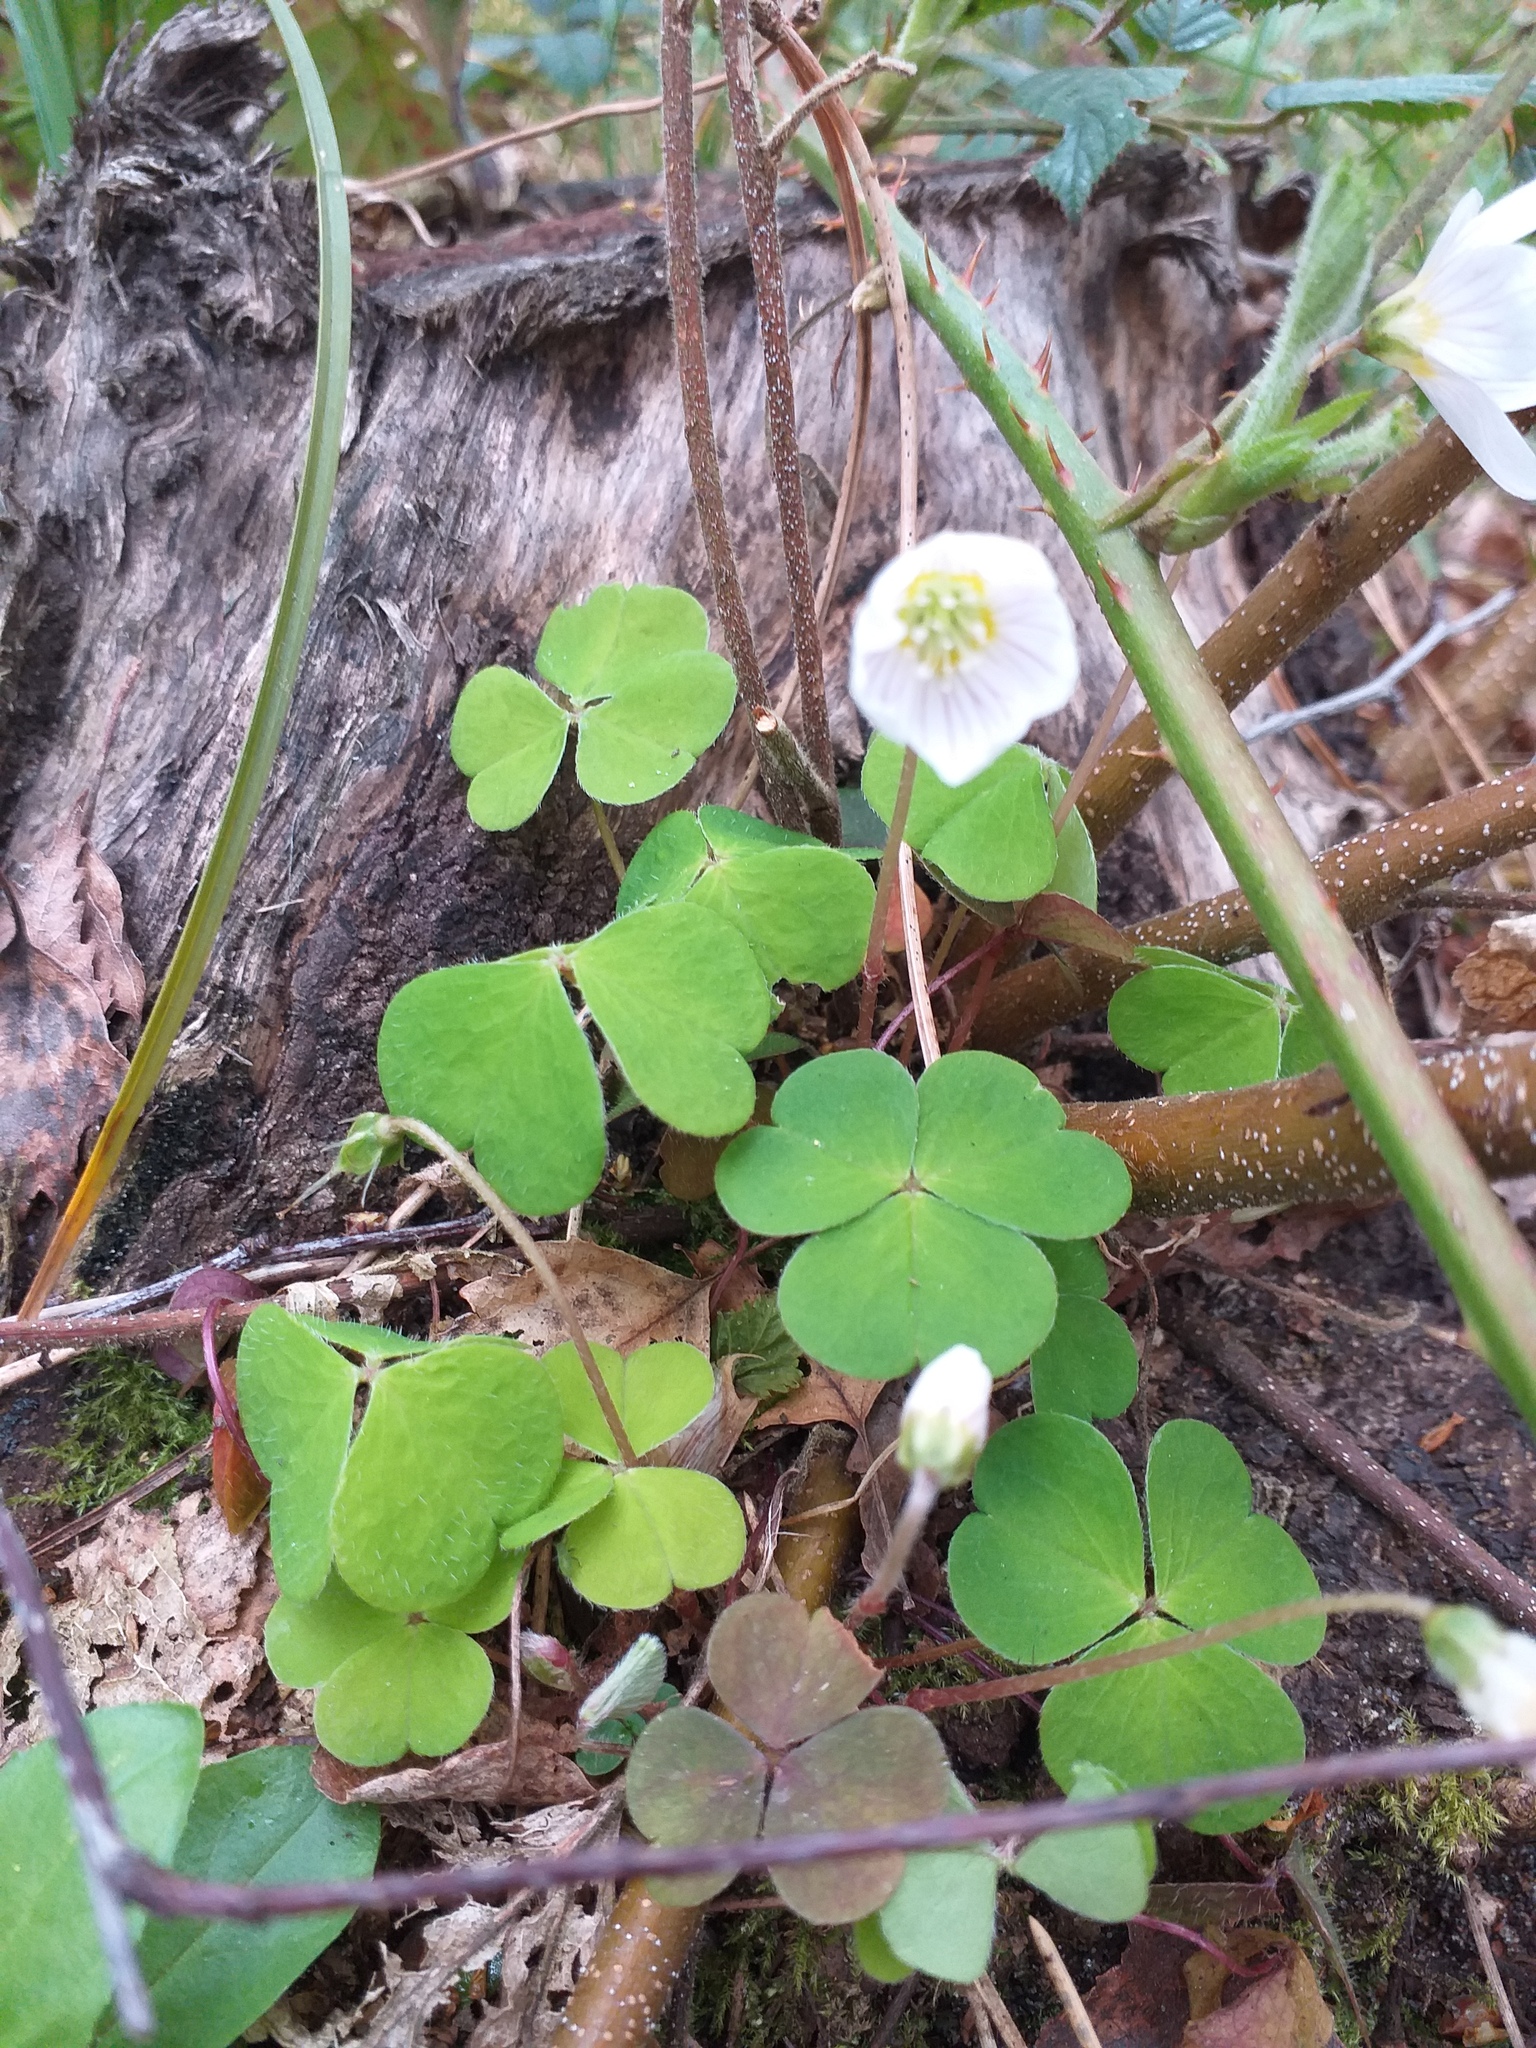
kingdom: Plantae
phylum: Tracheophyta
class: Magnoliopsida
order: Oxalidales
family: Oxalidaceae
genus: Oxalis
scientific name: Oxalis acetosella
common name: Wood-sorrel
